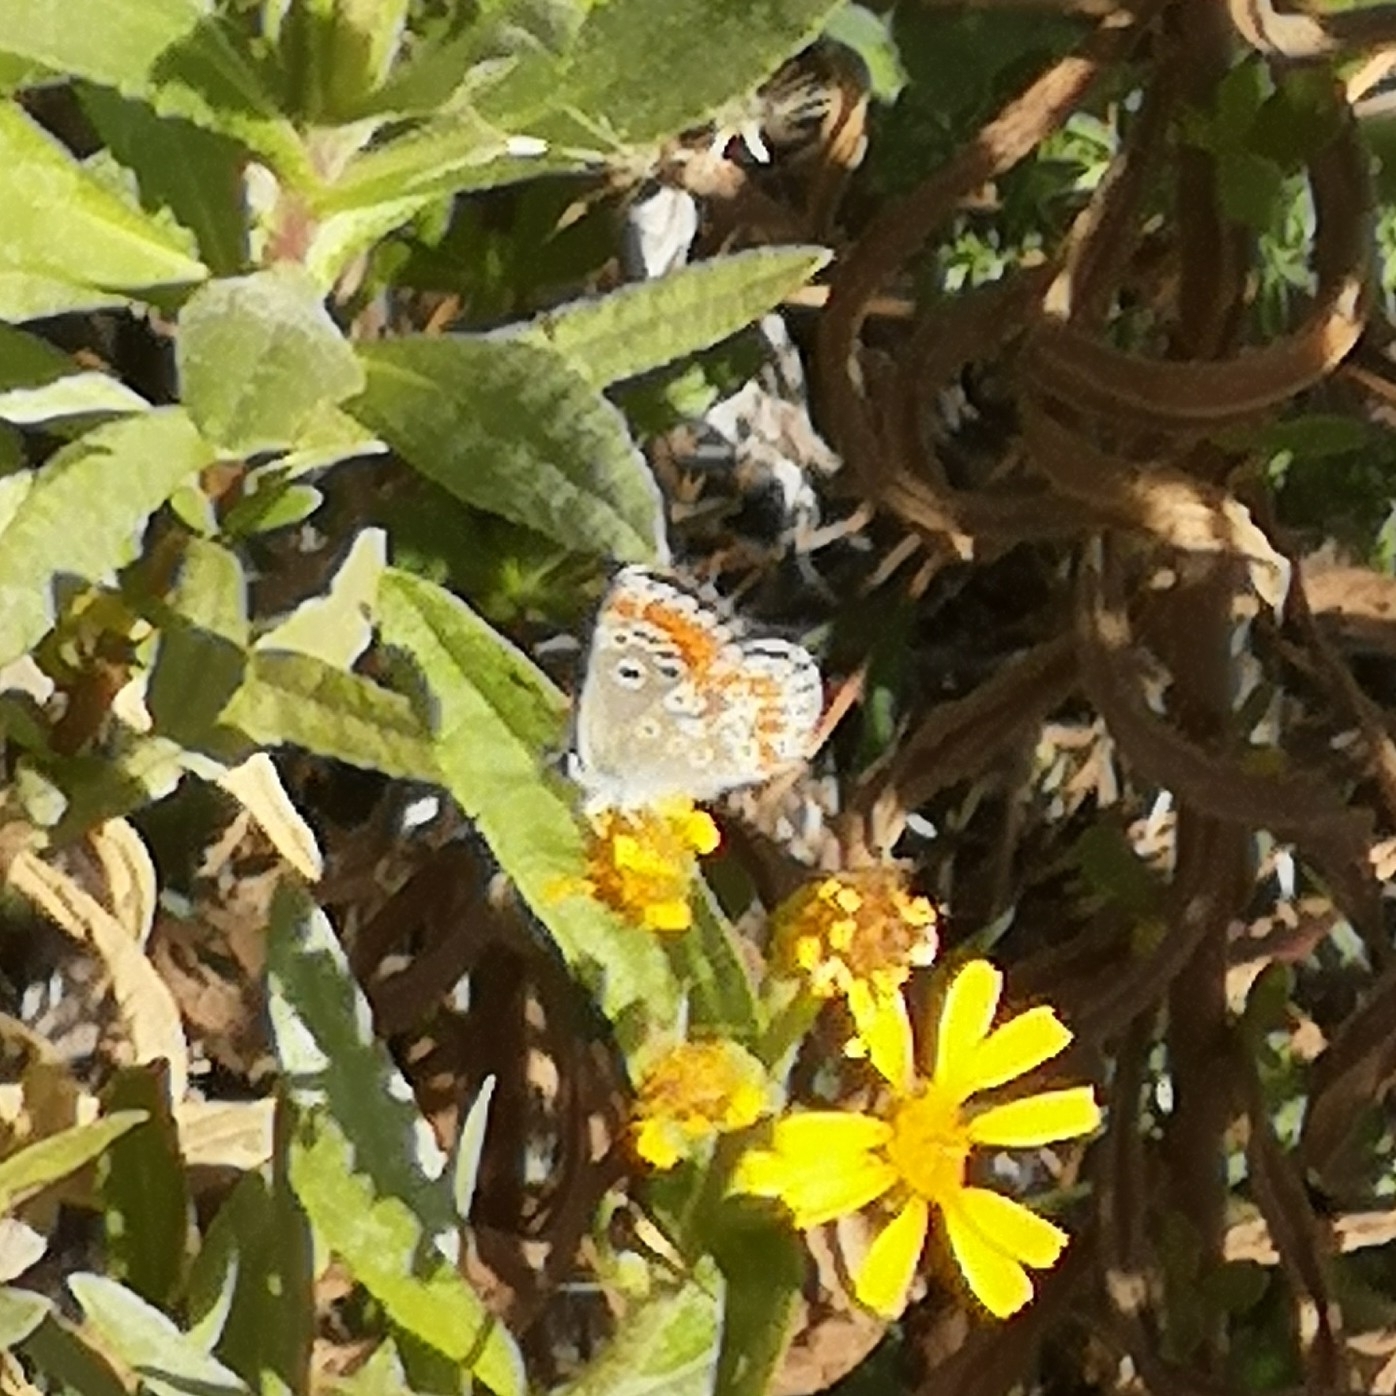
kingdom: Animalia
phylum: Arthropoda
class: Insecta
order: Lepidoptera
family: Lycaenidae
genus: Aricia
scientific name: Aricia cramera
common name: Eschscholtz´s brown  argus
